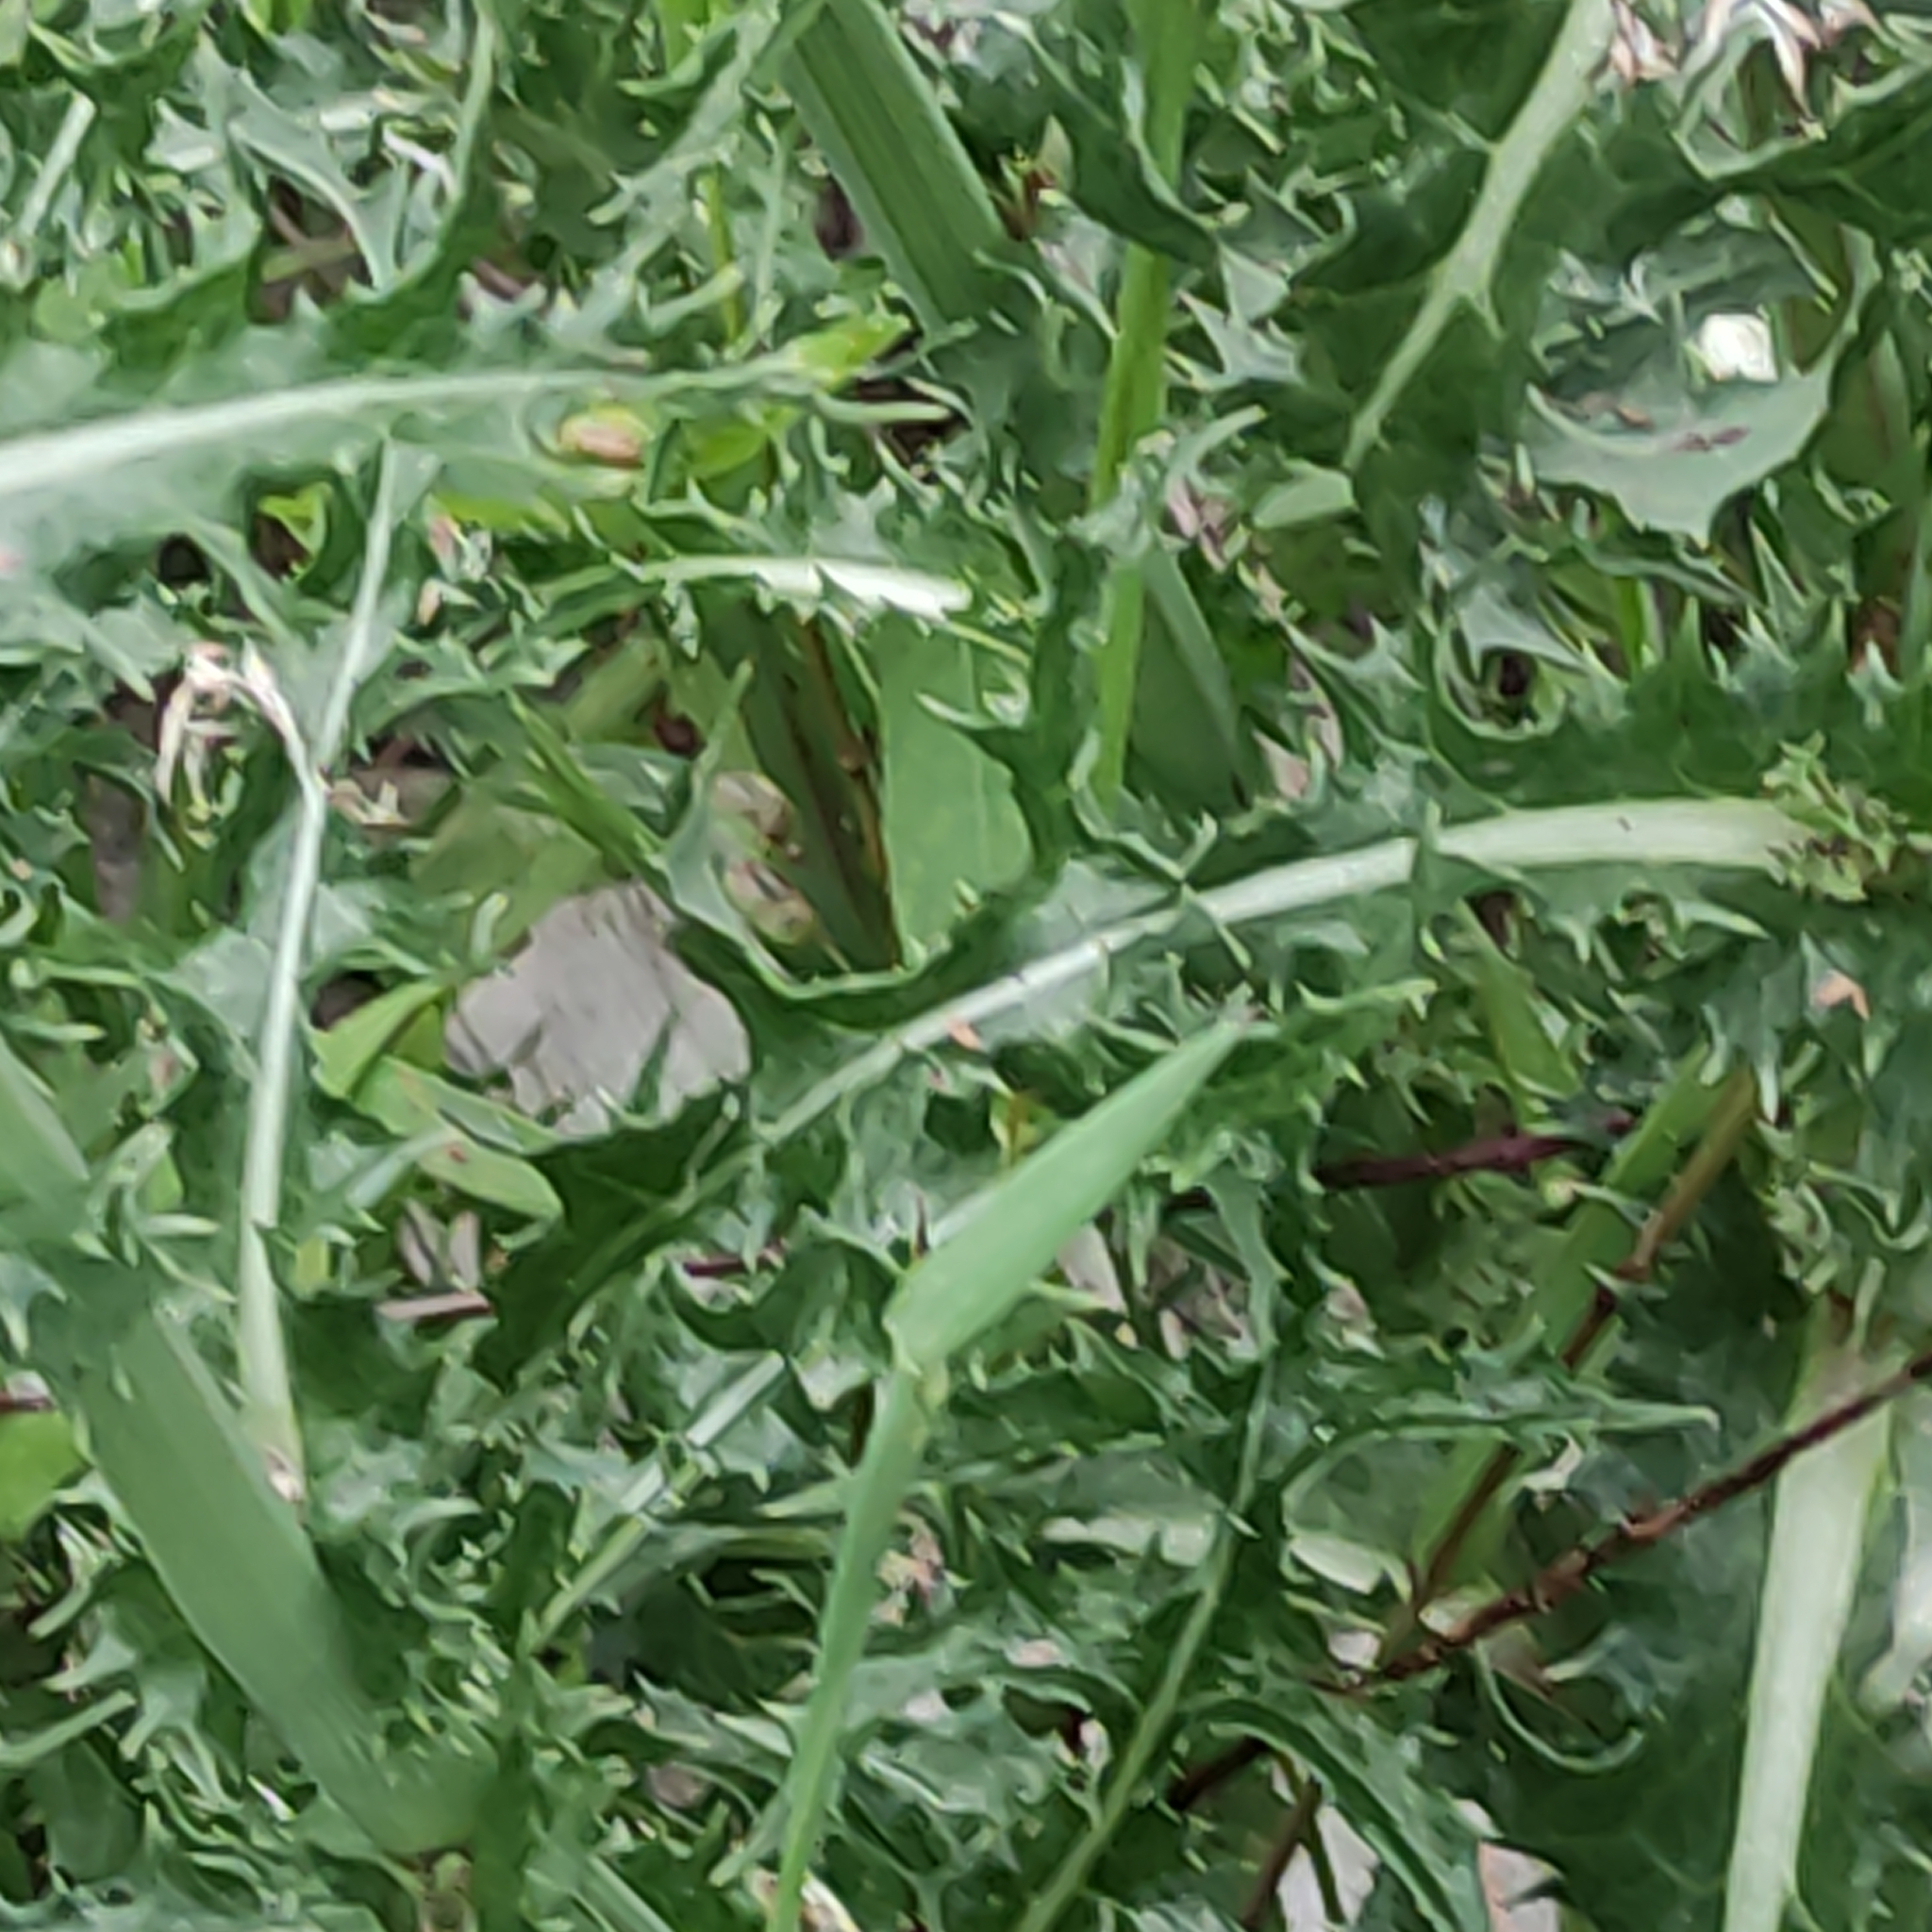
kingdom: Plantae
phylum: Tracheophyta
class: Magnoliopsida
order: Asterales
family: Asteraceae
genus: Sonchus
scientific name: Sonchus oleraceus
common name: Common sowthistle
